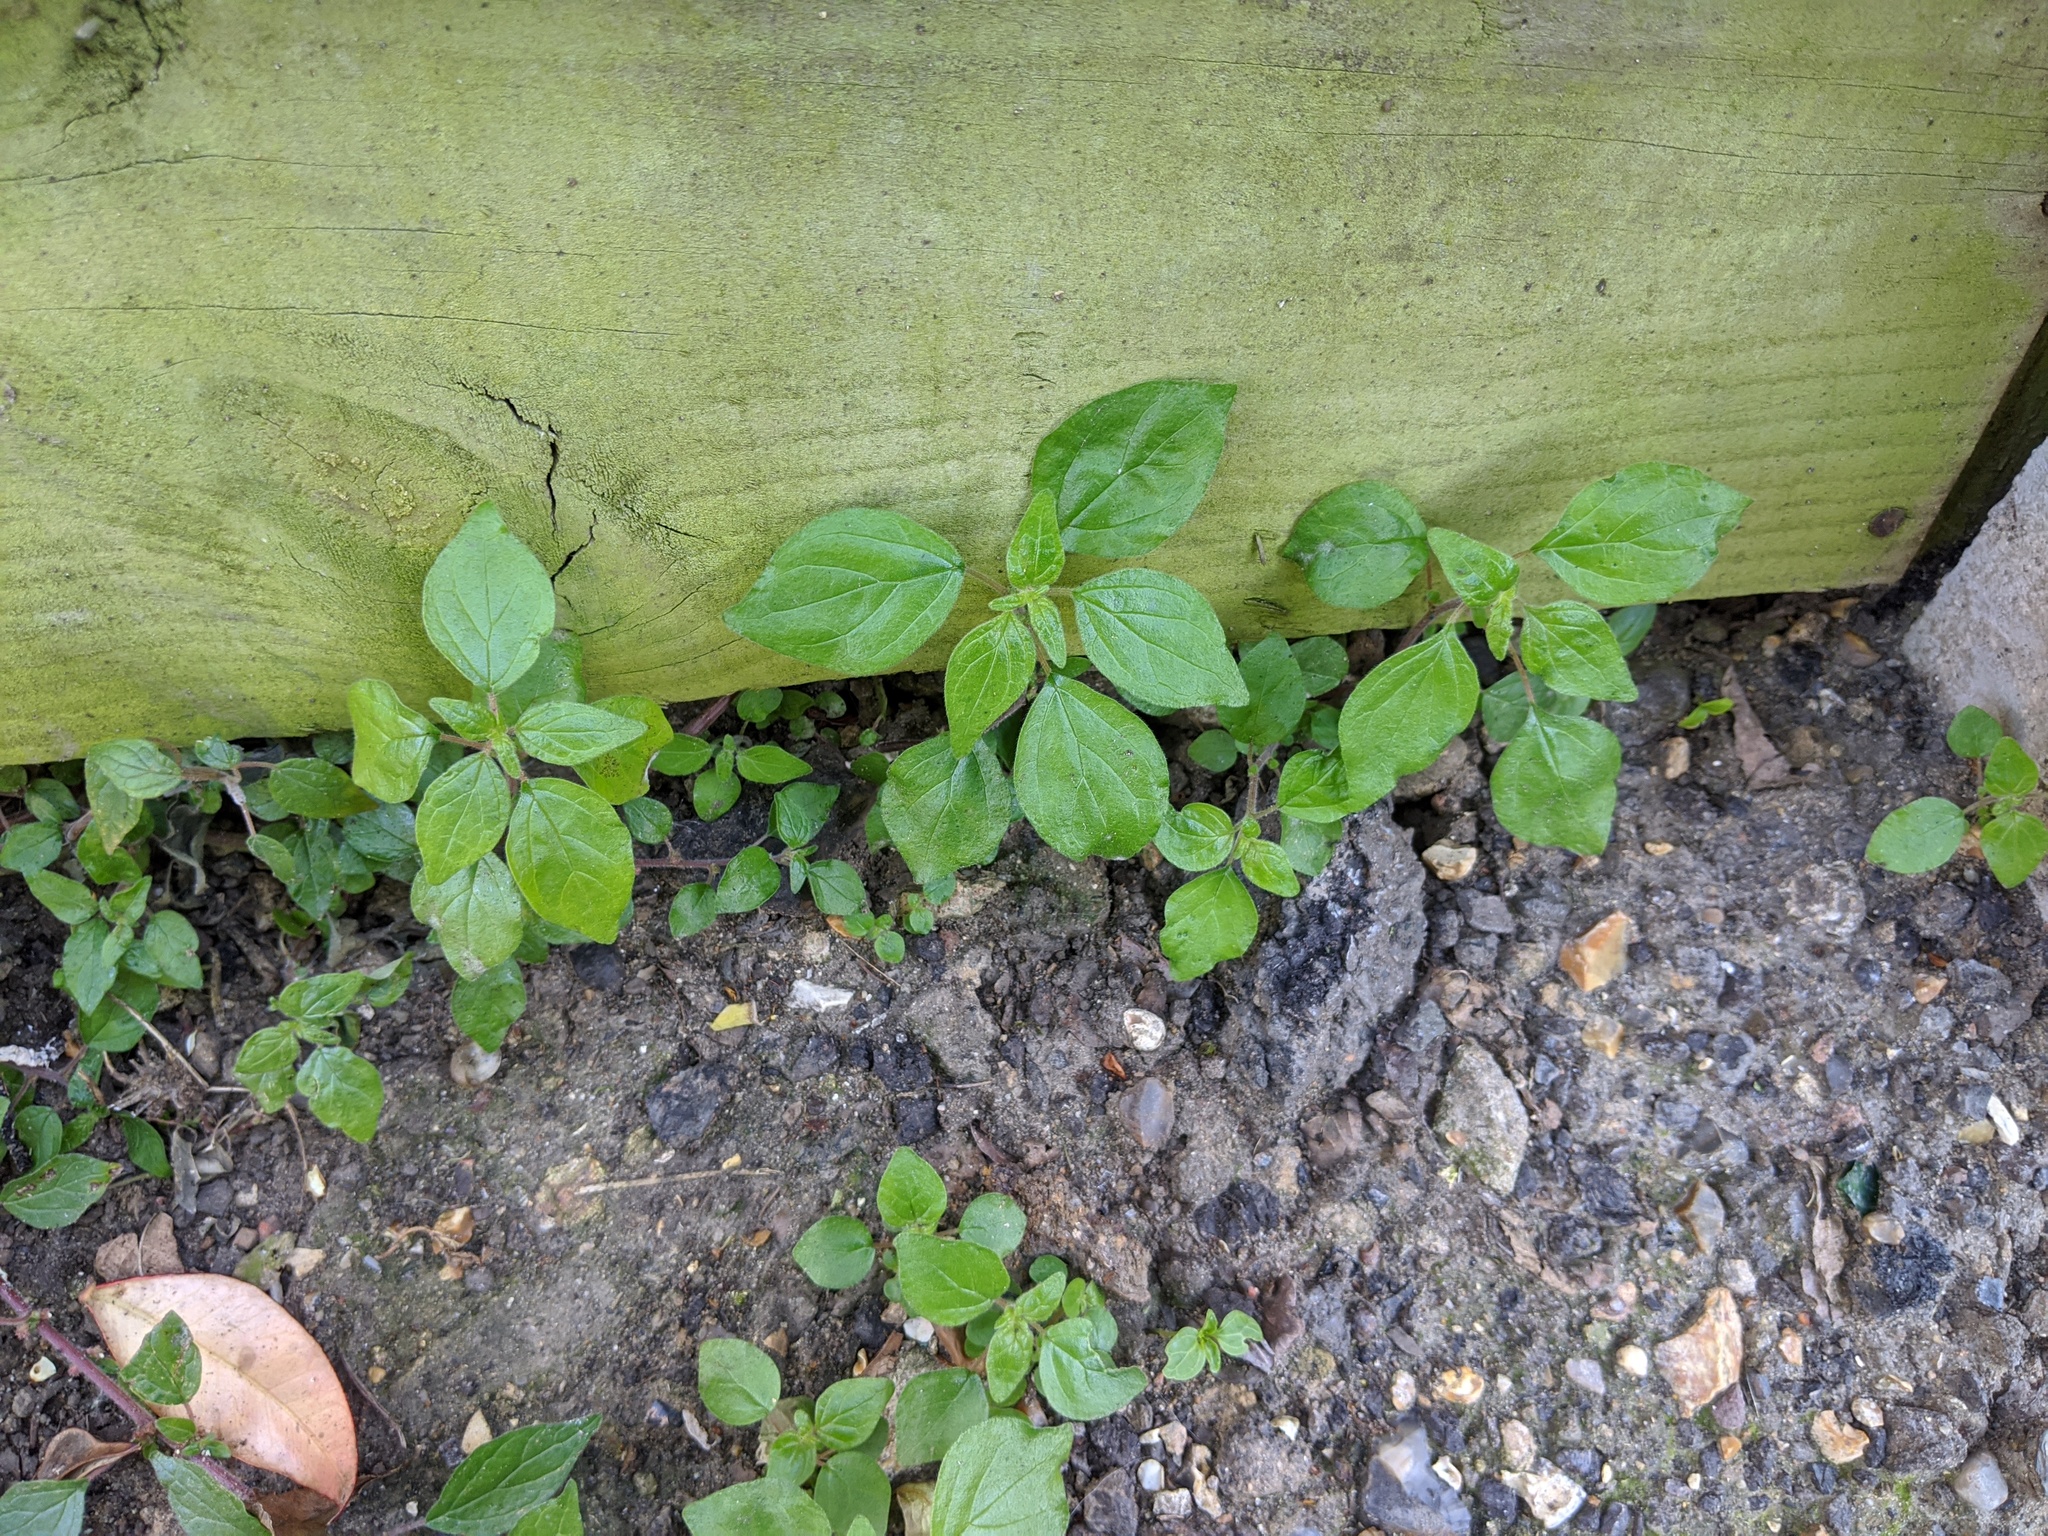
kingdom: Plantae
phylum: Tracheophyta
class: Magnoliopsida
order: Rosales
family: Urticaceae
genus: Parietaria
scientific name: Parietaria judaica
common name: Pellitory-of-the-wall
